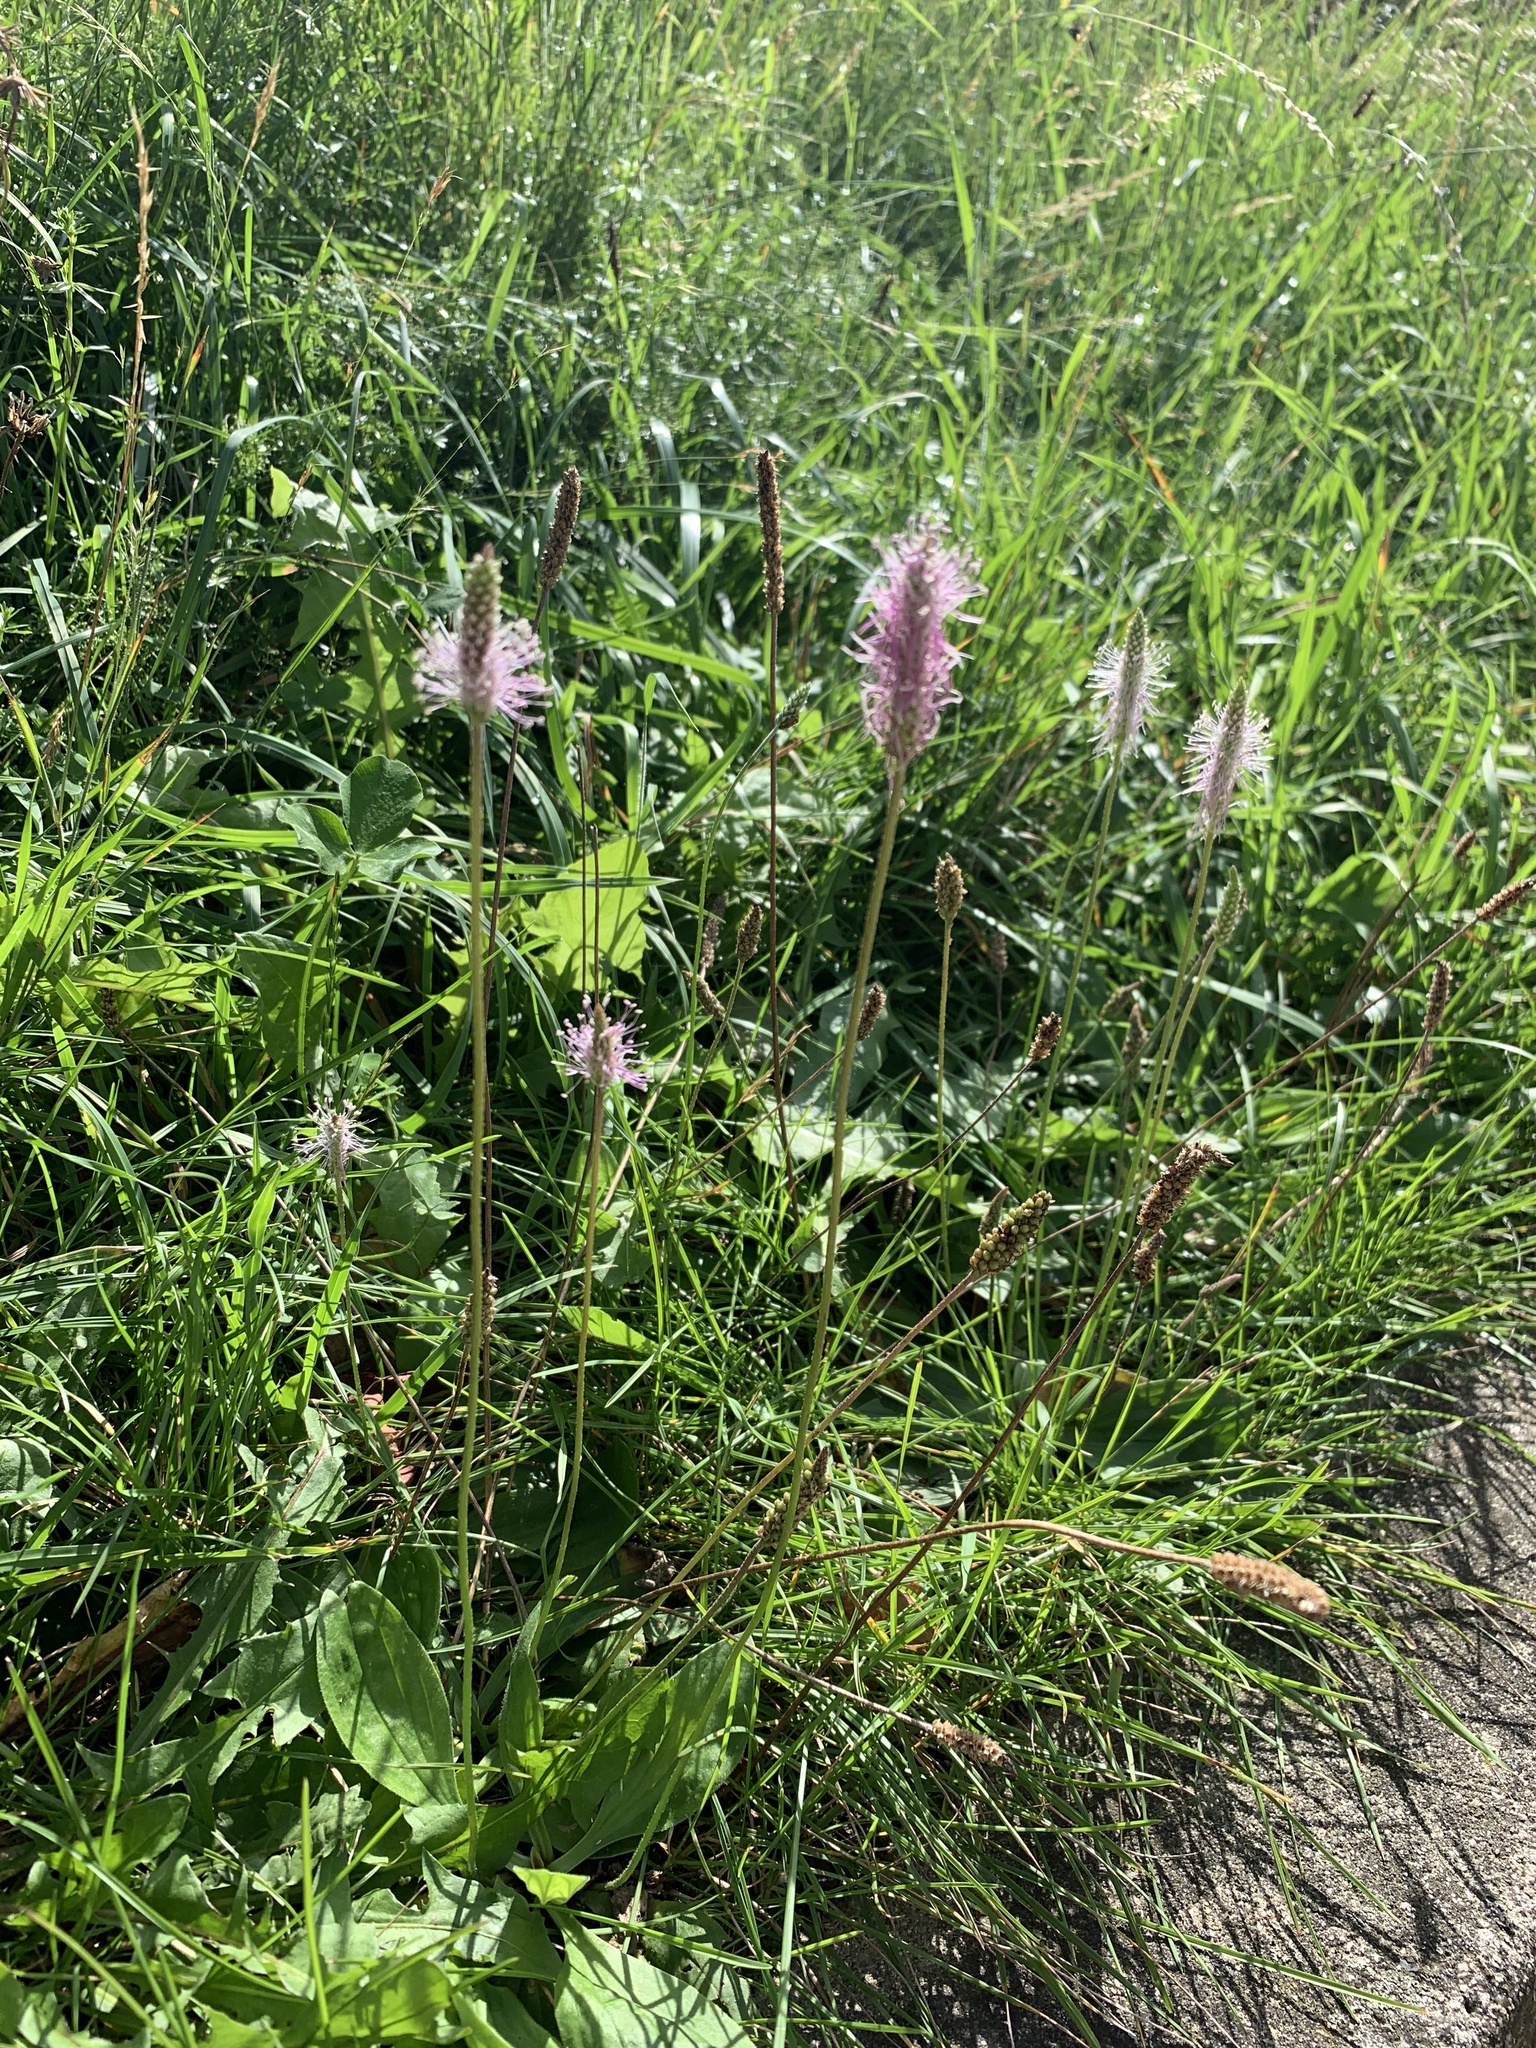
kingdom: Plantae
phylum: Tracheophyta
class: Magnoliopsida
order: Lamiales
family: Plantaginaceae
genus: Plantago
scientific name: Plantago media
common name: Hoary plantain
